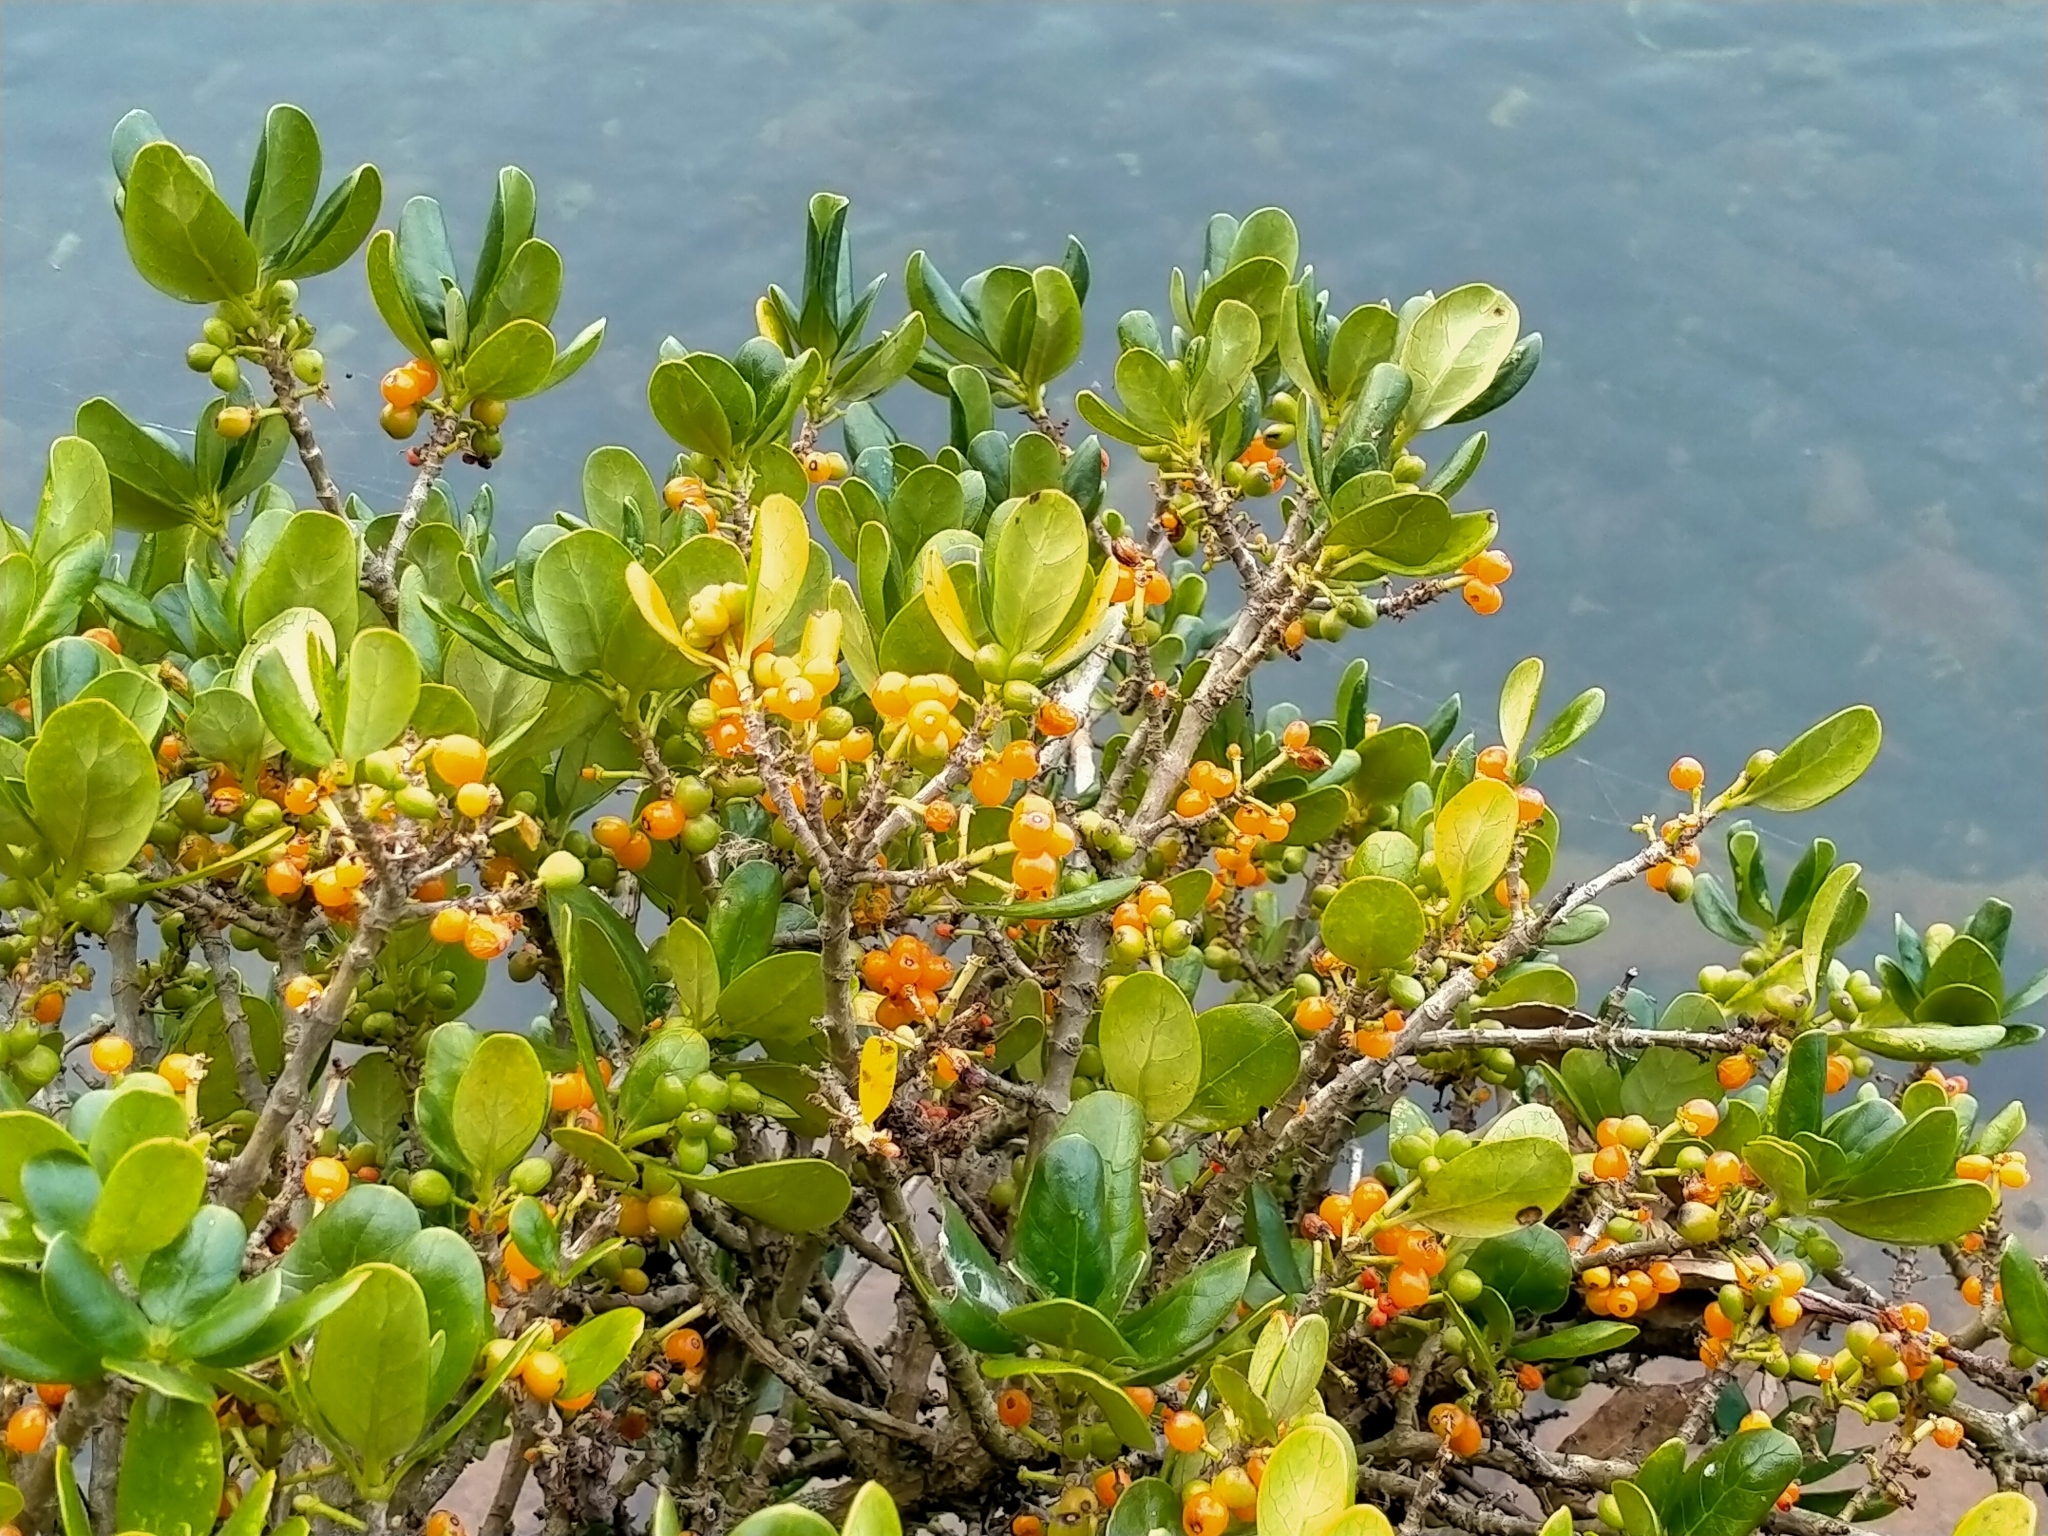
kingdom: Plantae
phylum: Tracheophyta
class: Magnoliopsida
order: Gentianales
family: Rubiaceae
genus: Coprosma
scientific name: Coprosma repens
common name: Tree bedstraw
